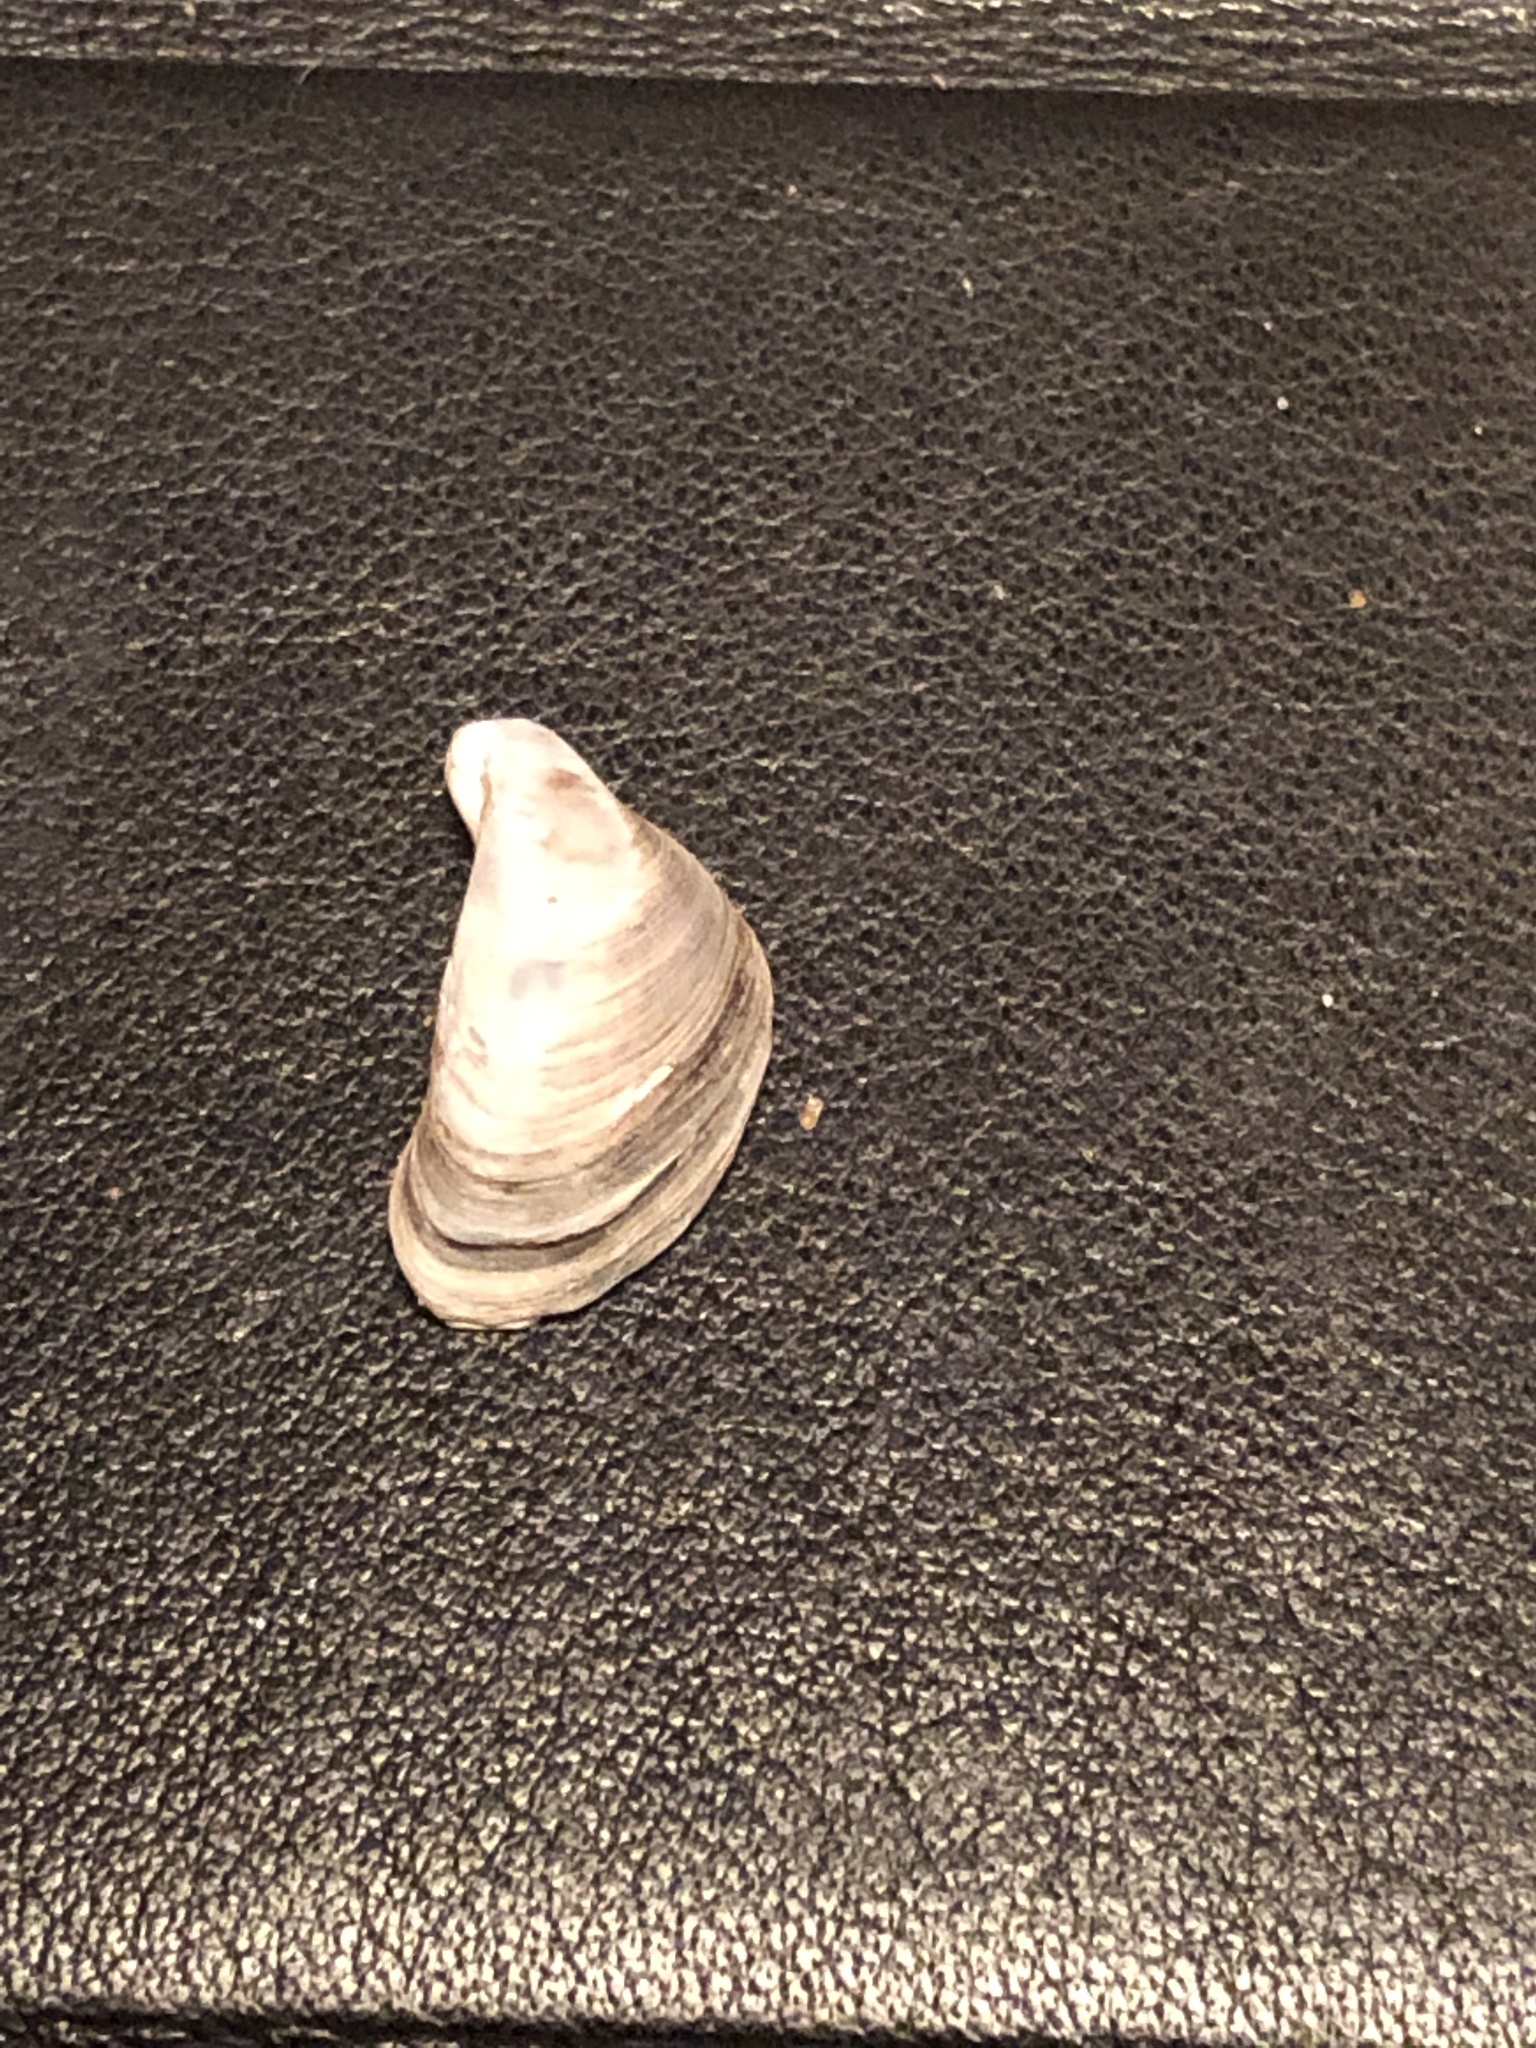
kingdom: Animalia
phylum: Mollusca
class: Bivalvia
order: Myida
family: Dreissenidae
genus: Dreissena
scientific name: Dreissena bugensis
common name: Quagga mussel
